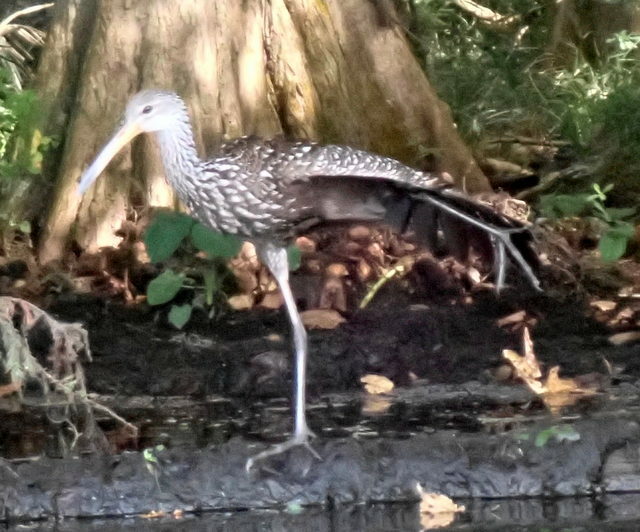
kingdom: Animalia
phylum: Chordata
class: Aves
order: Gruiformes
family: Aramidae
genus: Aramus
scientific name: Aramus guarauna
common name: Limpkin
